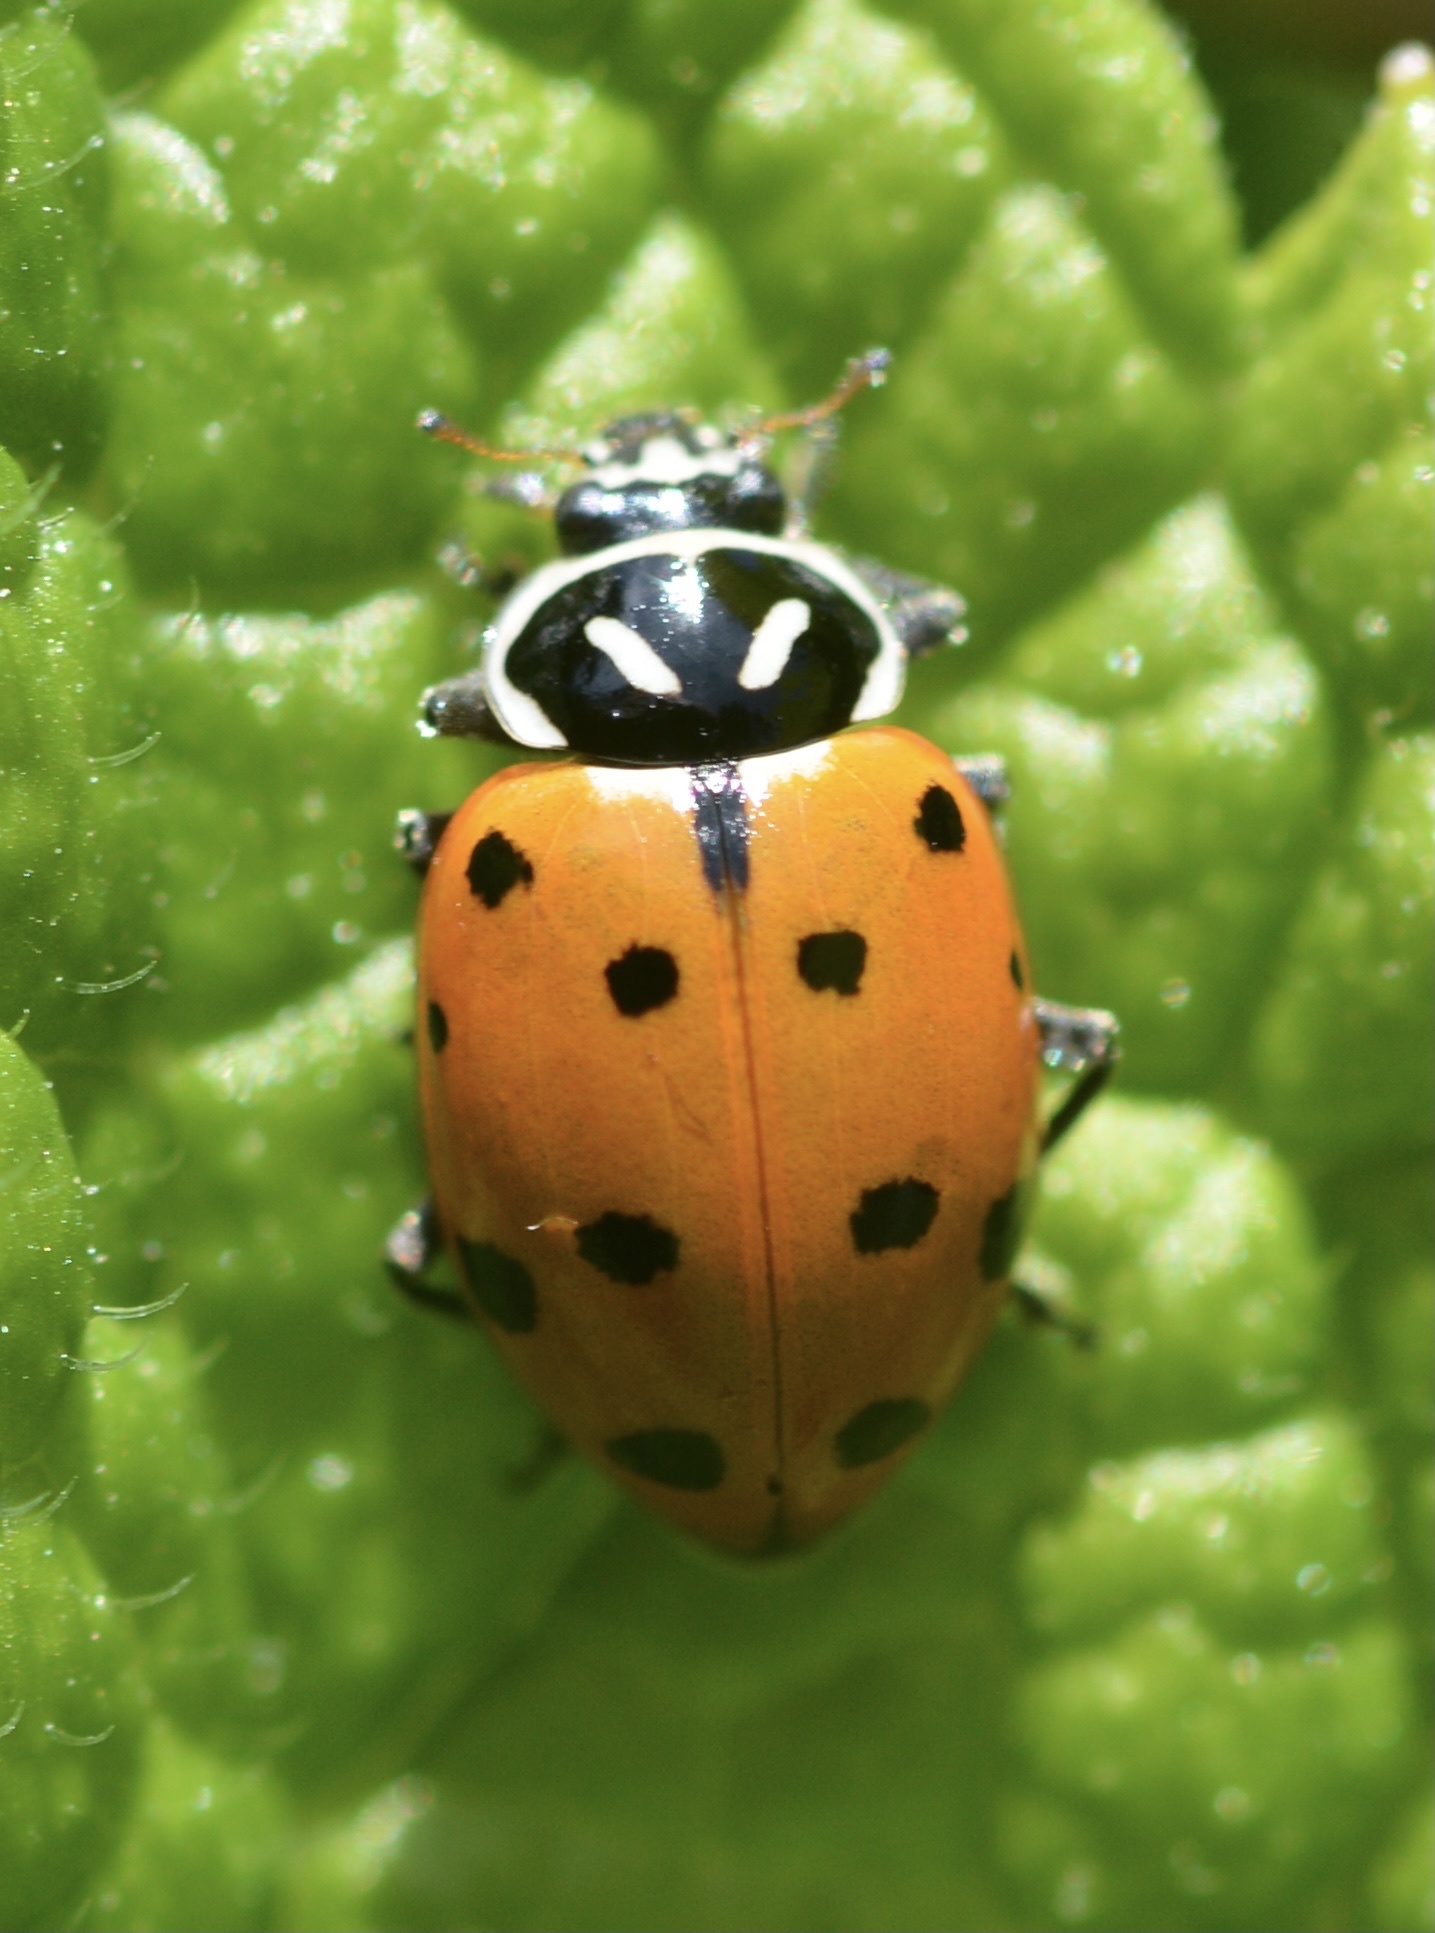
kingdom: Animalia
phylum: Arthropoda
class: Insecta
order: Coleoptera
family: Coccinellidae
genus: Hippodamia
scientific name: Hippodamia convergens
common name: Convergent lady beetle
